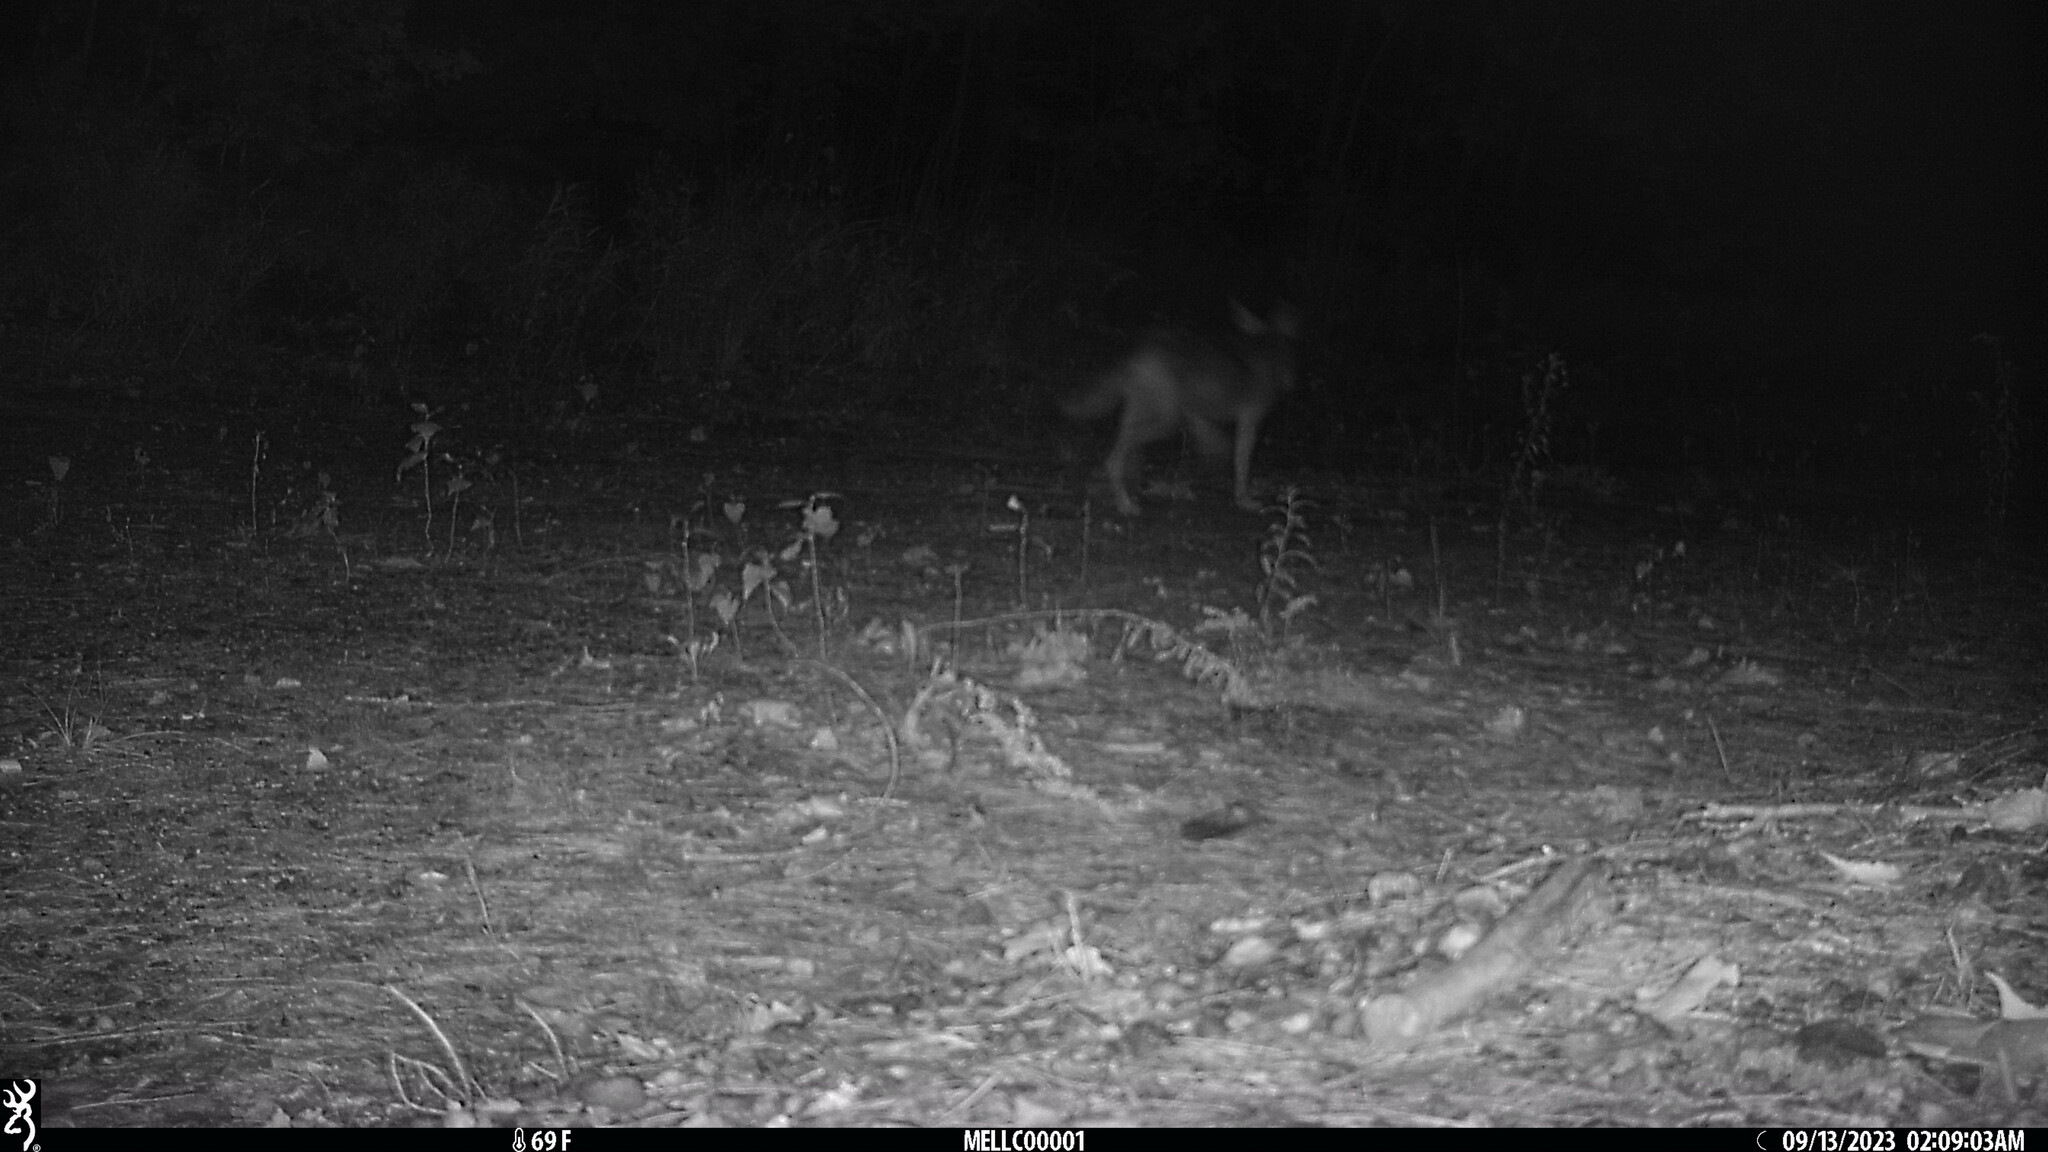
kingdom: Animalia
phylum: Chordata
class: Mammalia
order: Carnivora
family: Canidae
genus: Canis
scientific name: Canis latrans
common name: Coyote
